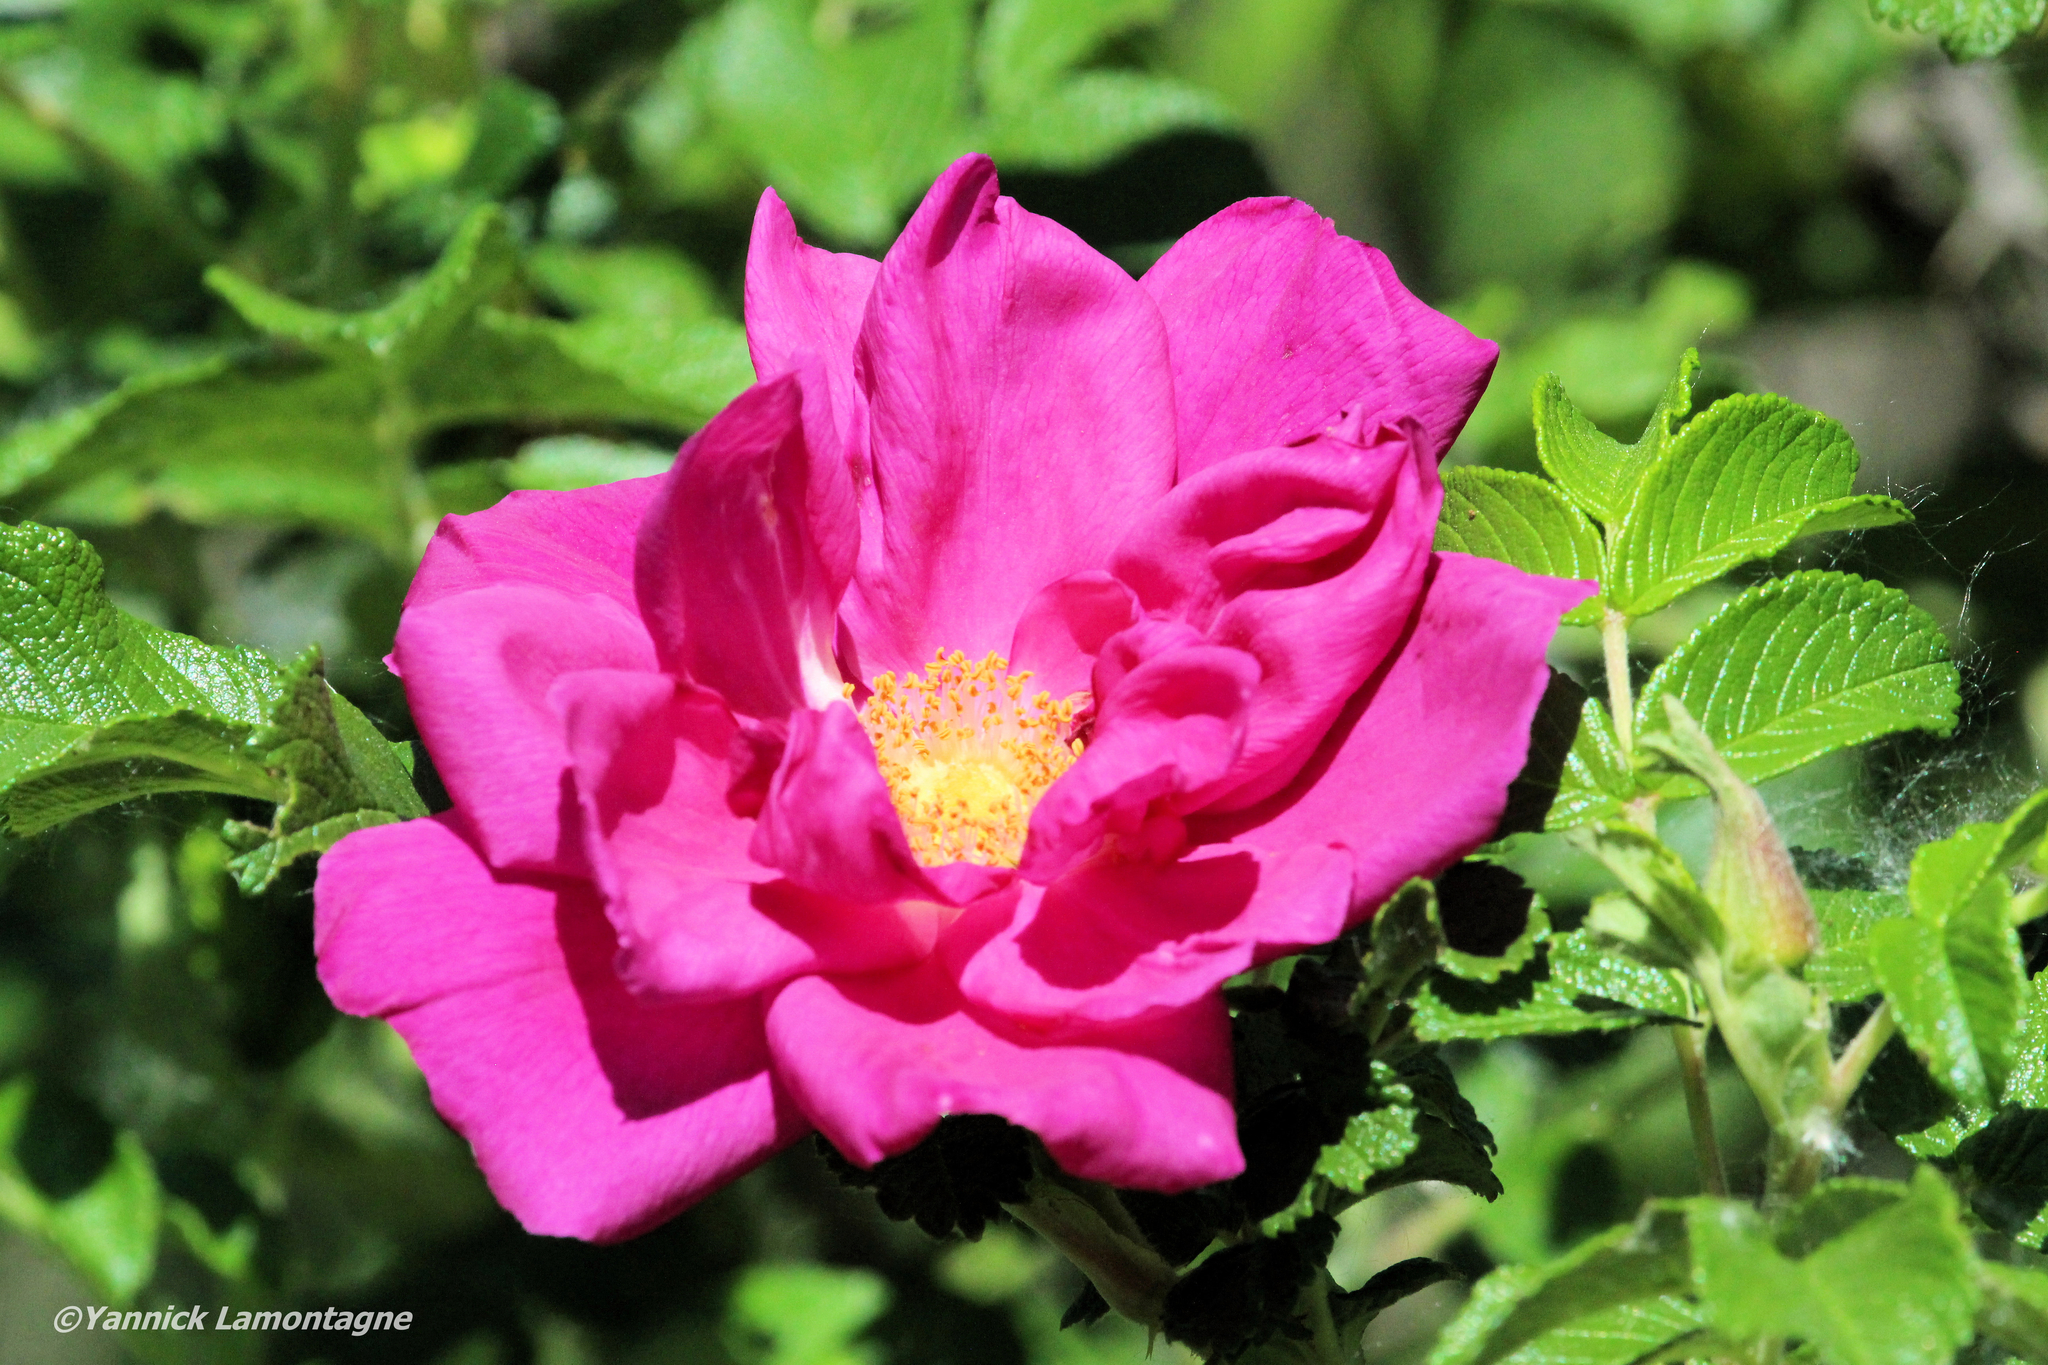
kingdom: Plantae
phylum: Tracheophyta
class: Magnoliopsida
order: Rosales
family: Rosaceae
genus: Rosa
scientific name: Rosa rugosa
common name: Japanese rose
